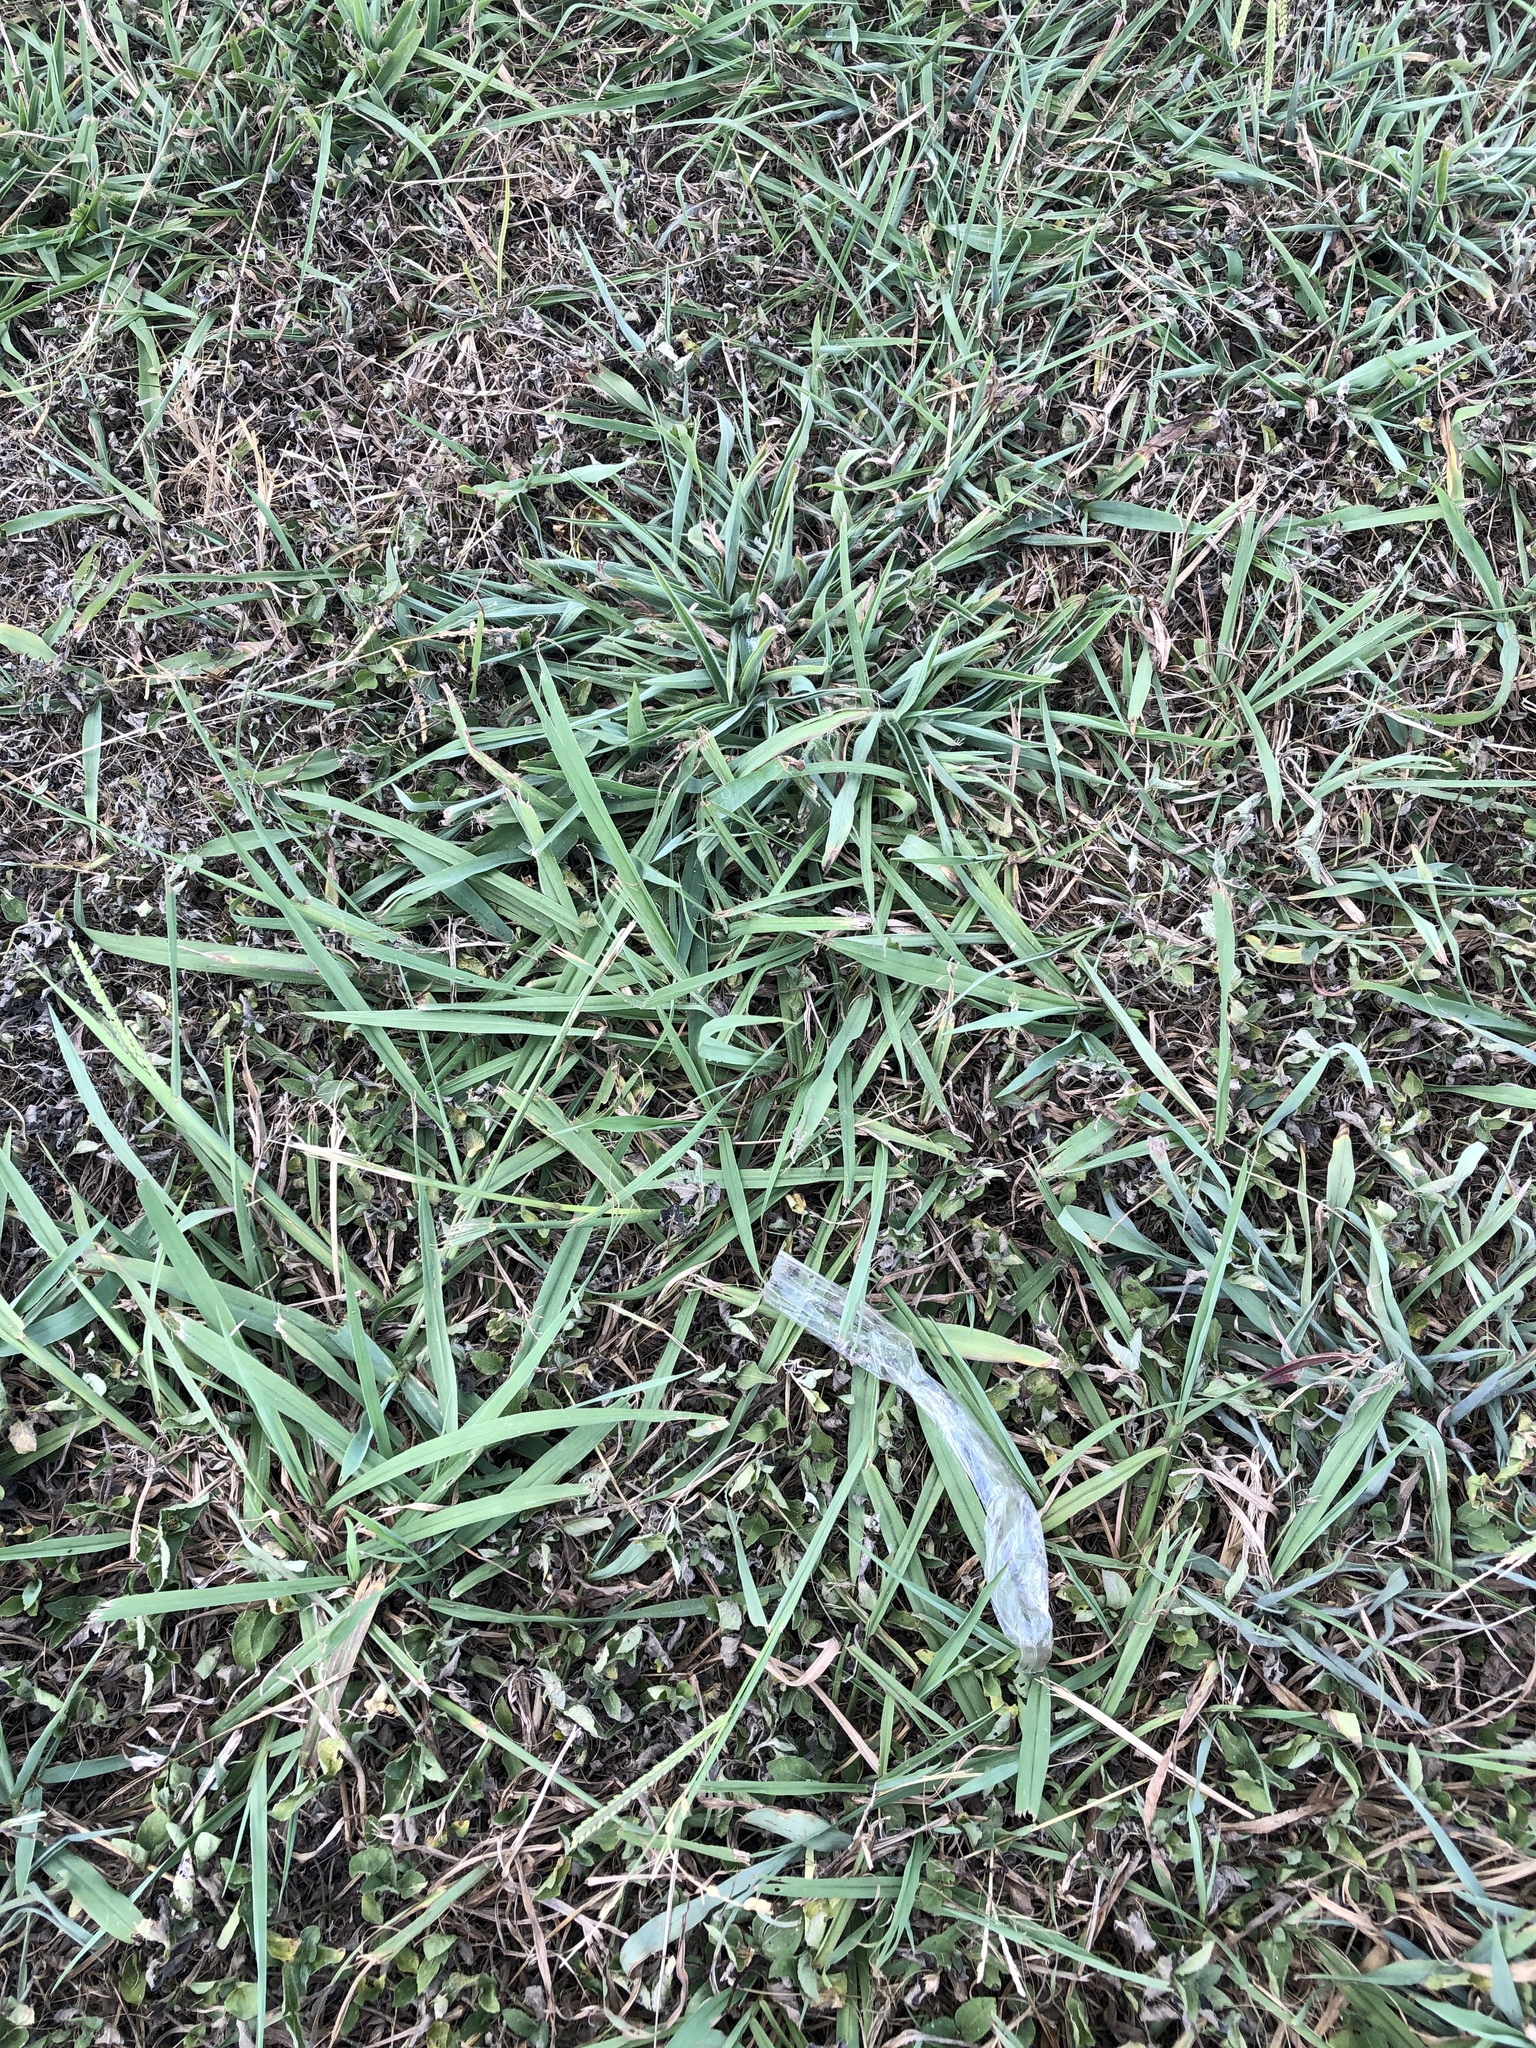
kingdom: Plantae
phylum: Tracheophyta
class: Liliopsida
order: Poales
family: Poaceae
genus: Paspalum
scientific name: Paspalum dilatatum
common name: Dallisgrass
